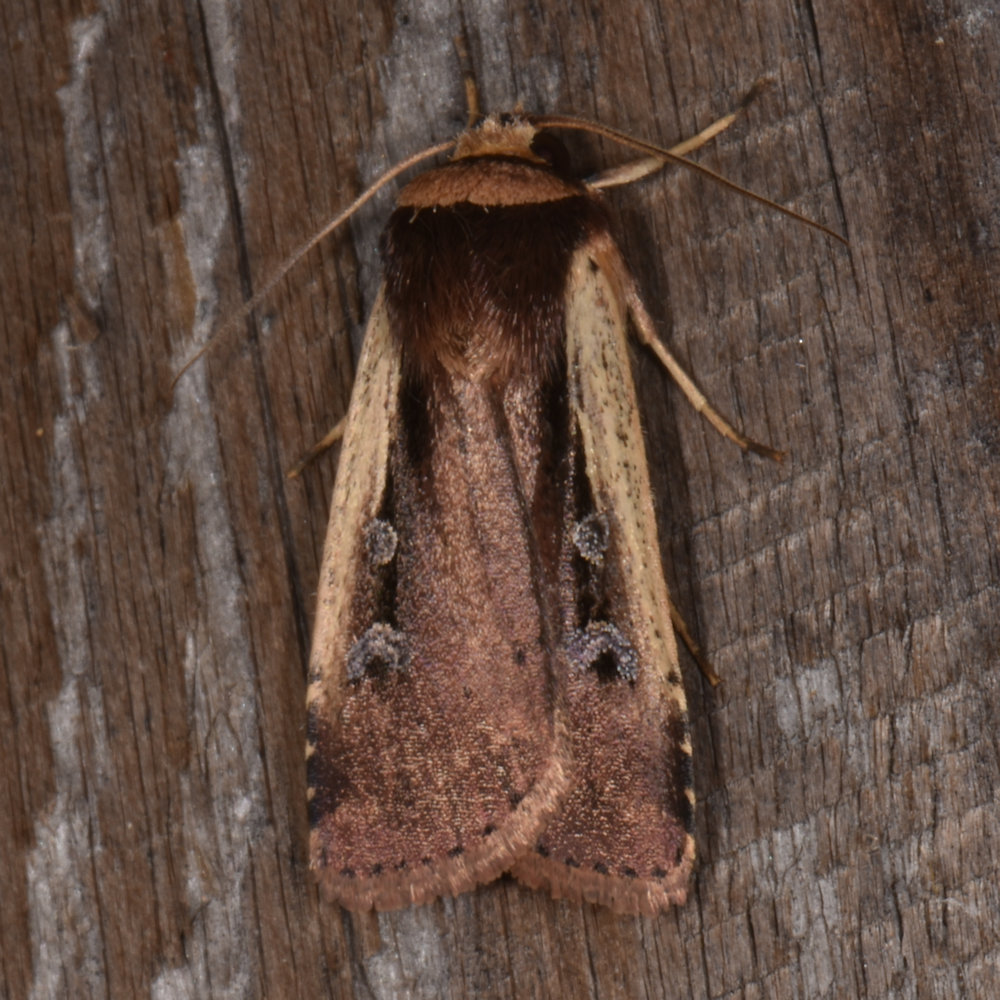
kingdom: Animalia
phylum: Arthropoda
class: Insecta
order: Lepidoptera
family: Noctuidae
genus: Ochropleura
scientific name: Ochropleura implecta
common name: Flame-shouldered dart
